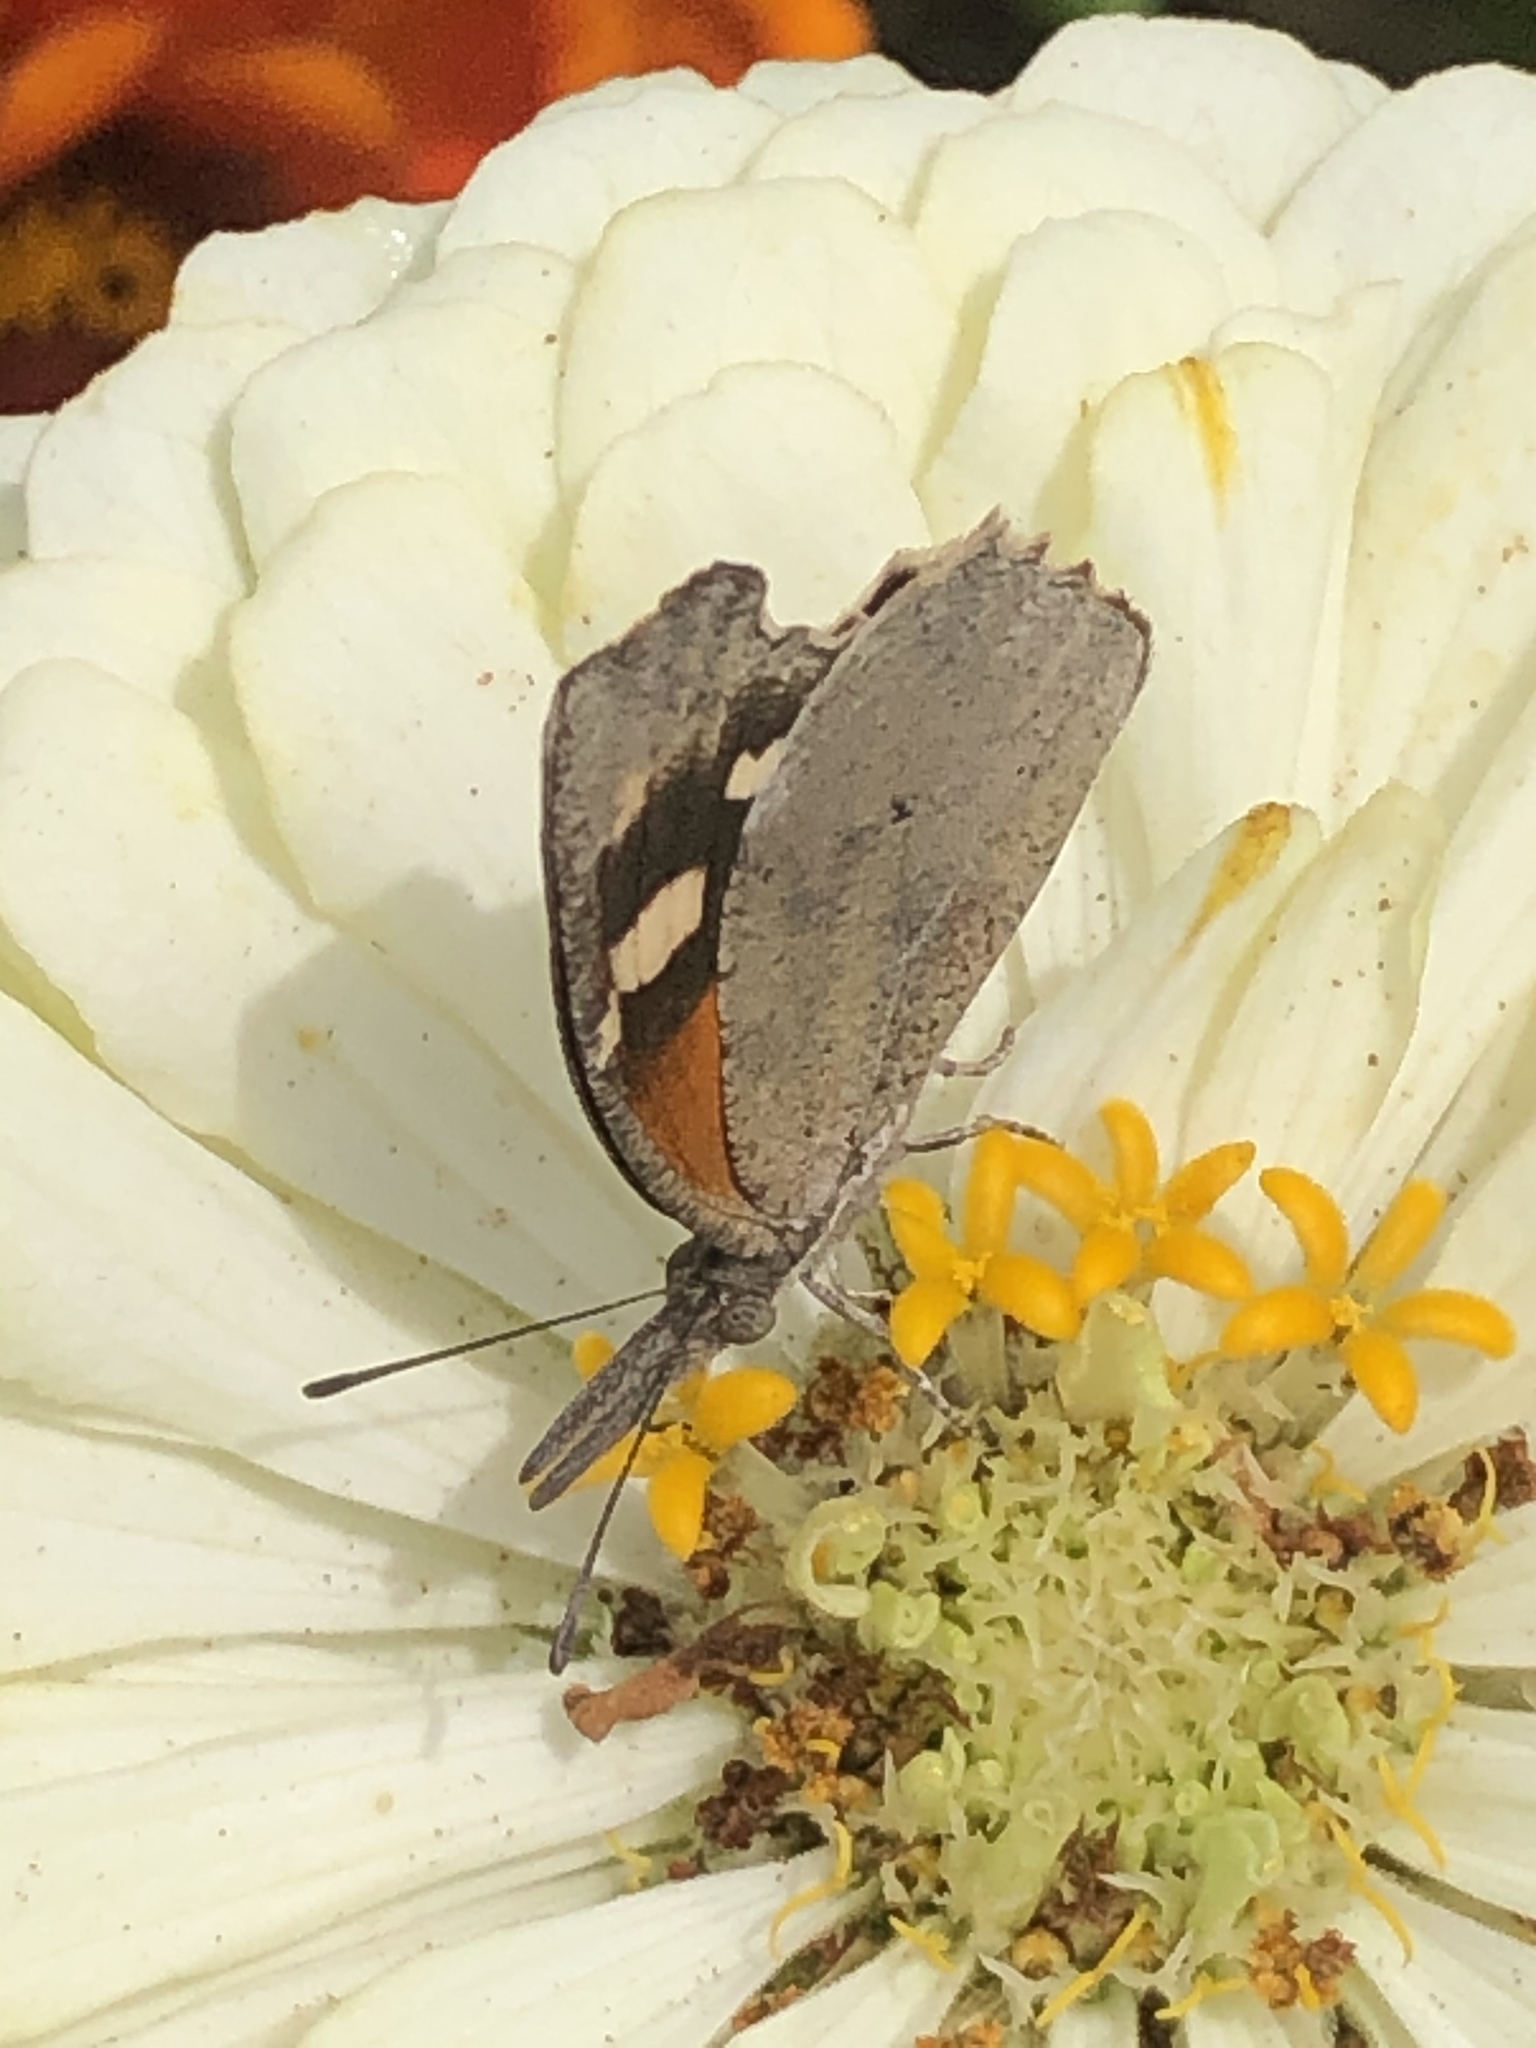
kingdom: Animalia
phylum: Arthropoda
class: Insecta
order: Lepidoptera
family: Nymphalidae
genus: Libytheana
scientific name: Libytheana carinenta
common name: American snout
